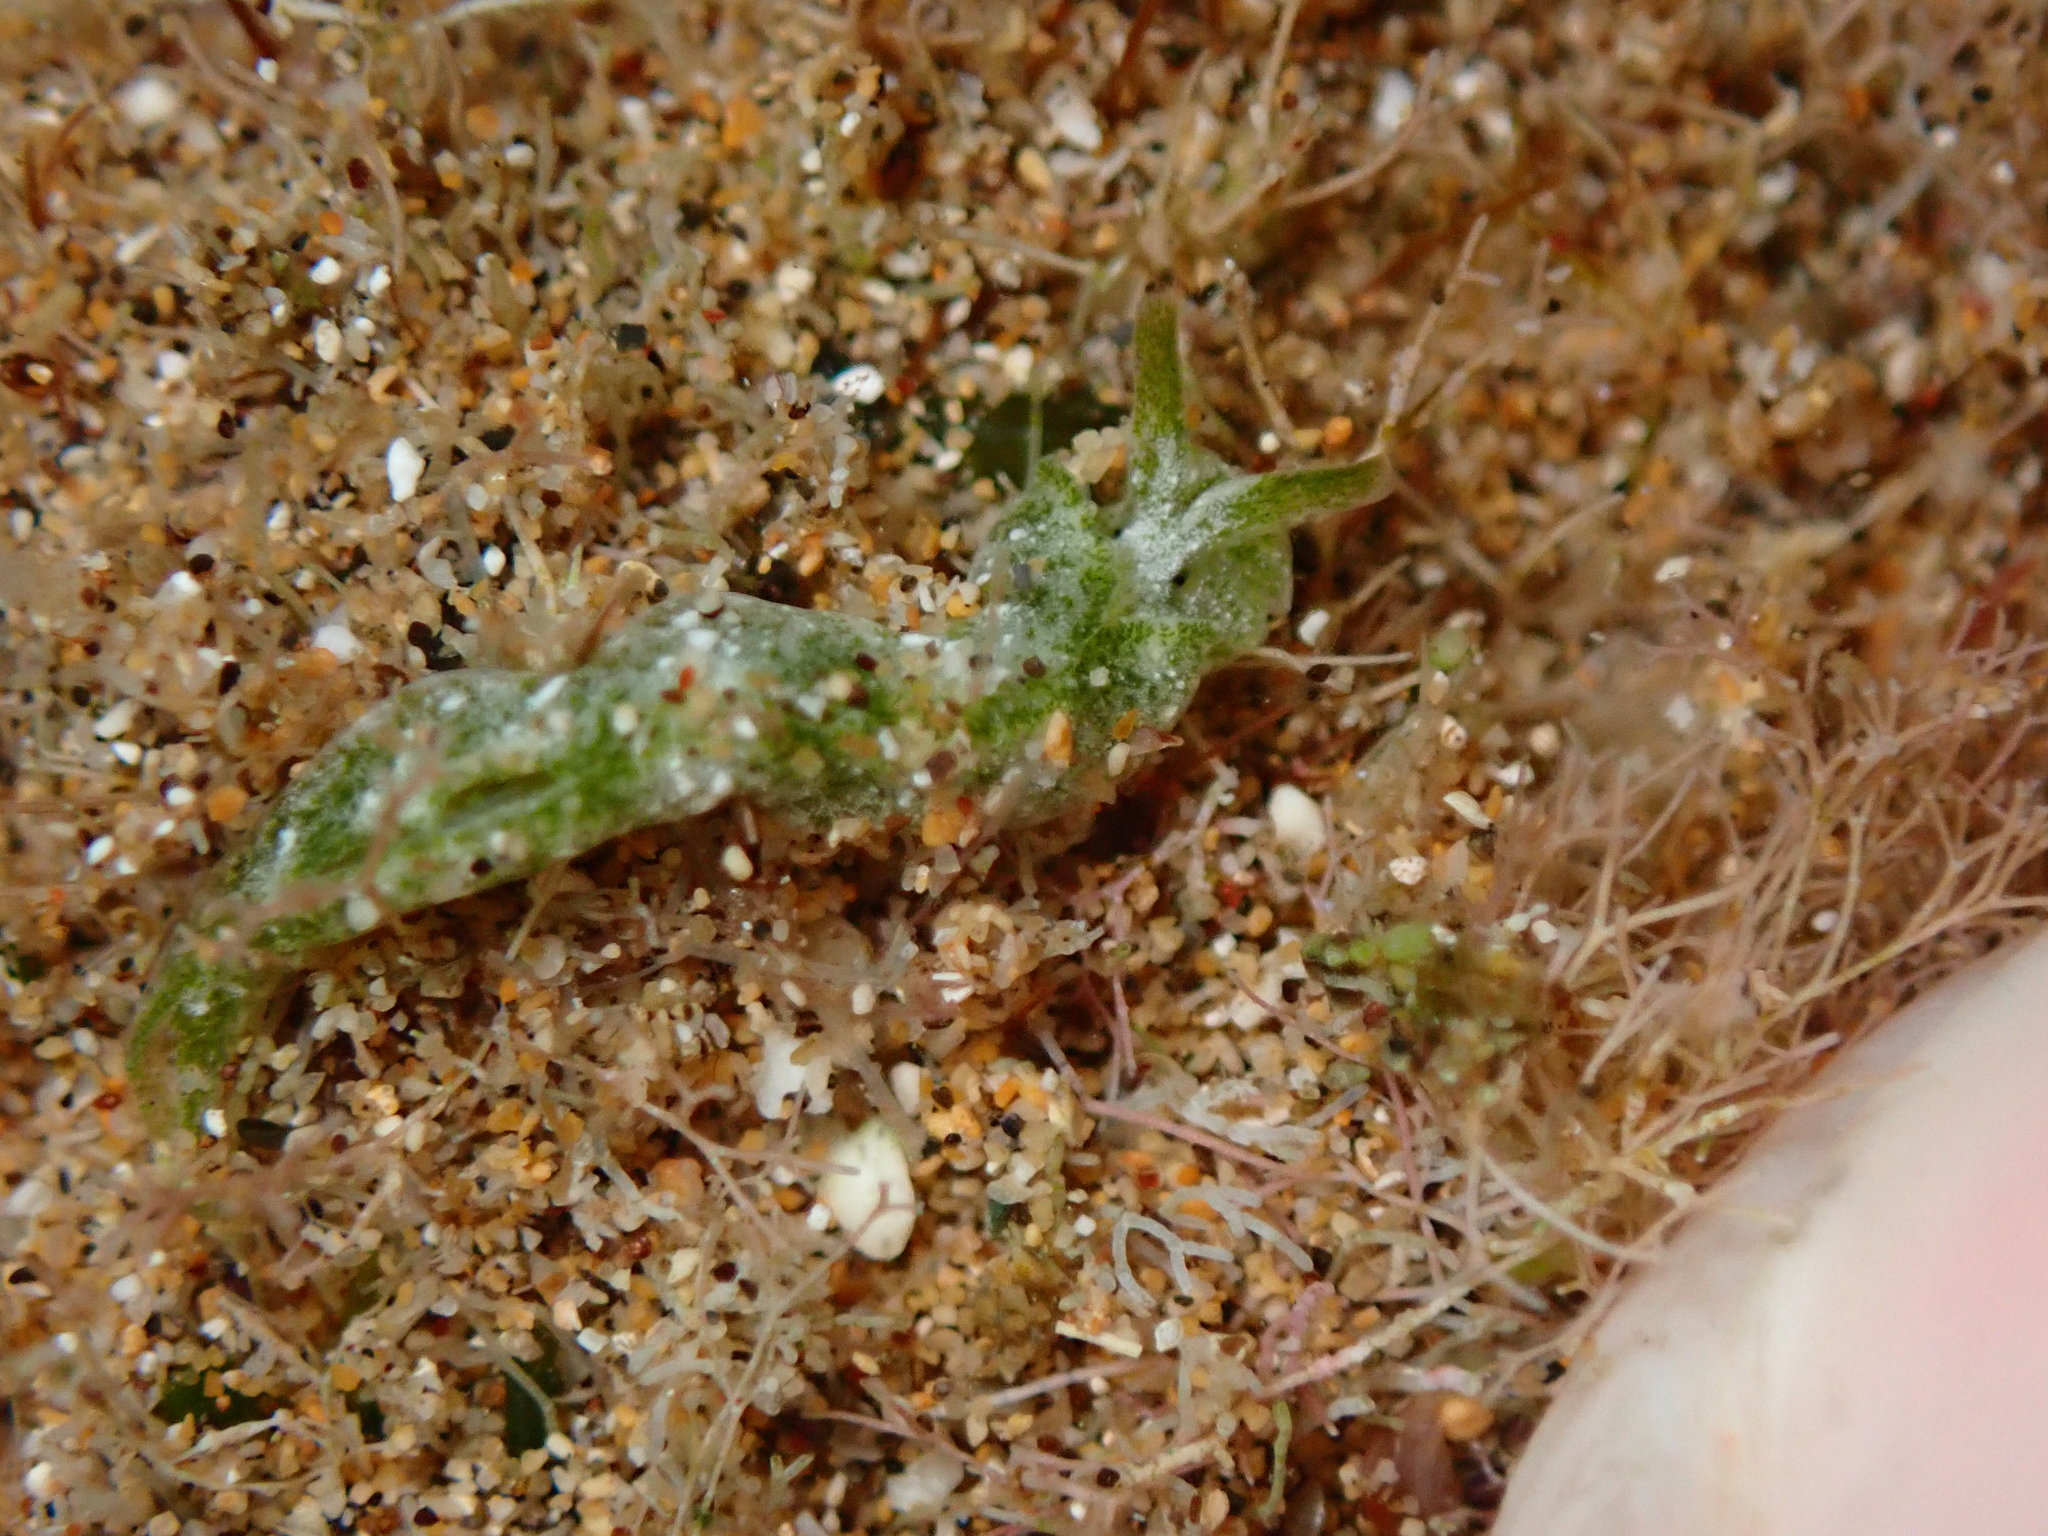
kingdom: Animalia
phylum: Mollusca
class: Gastropoda
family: Plakobranchidae
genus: Elysia
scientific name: Elysia nealae
